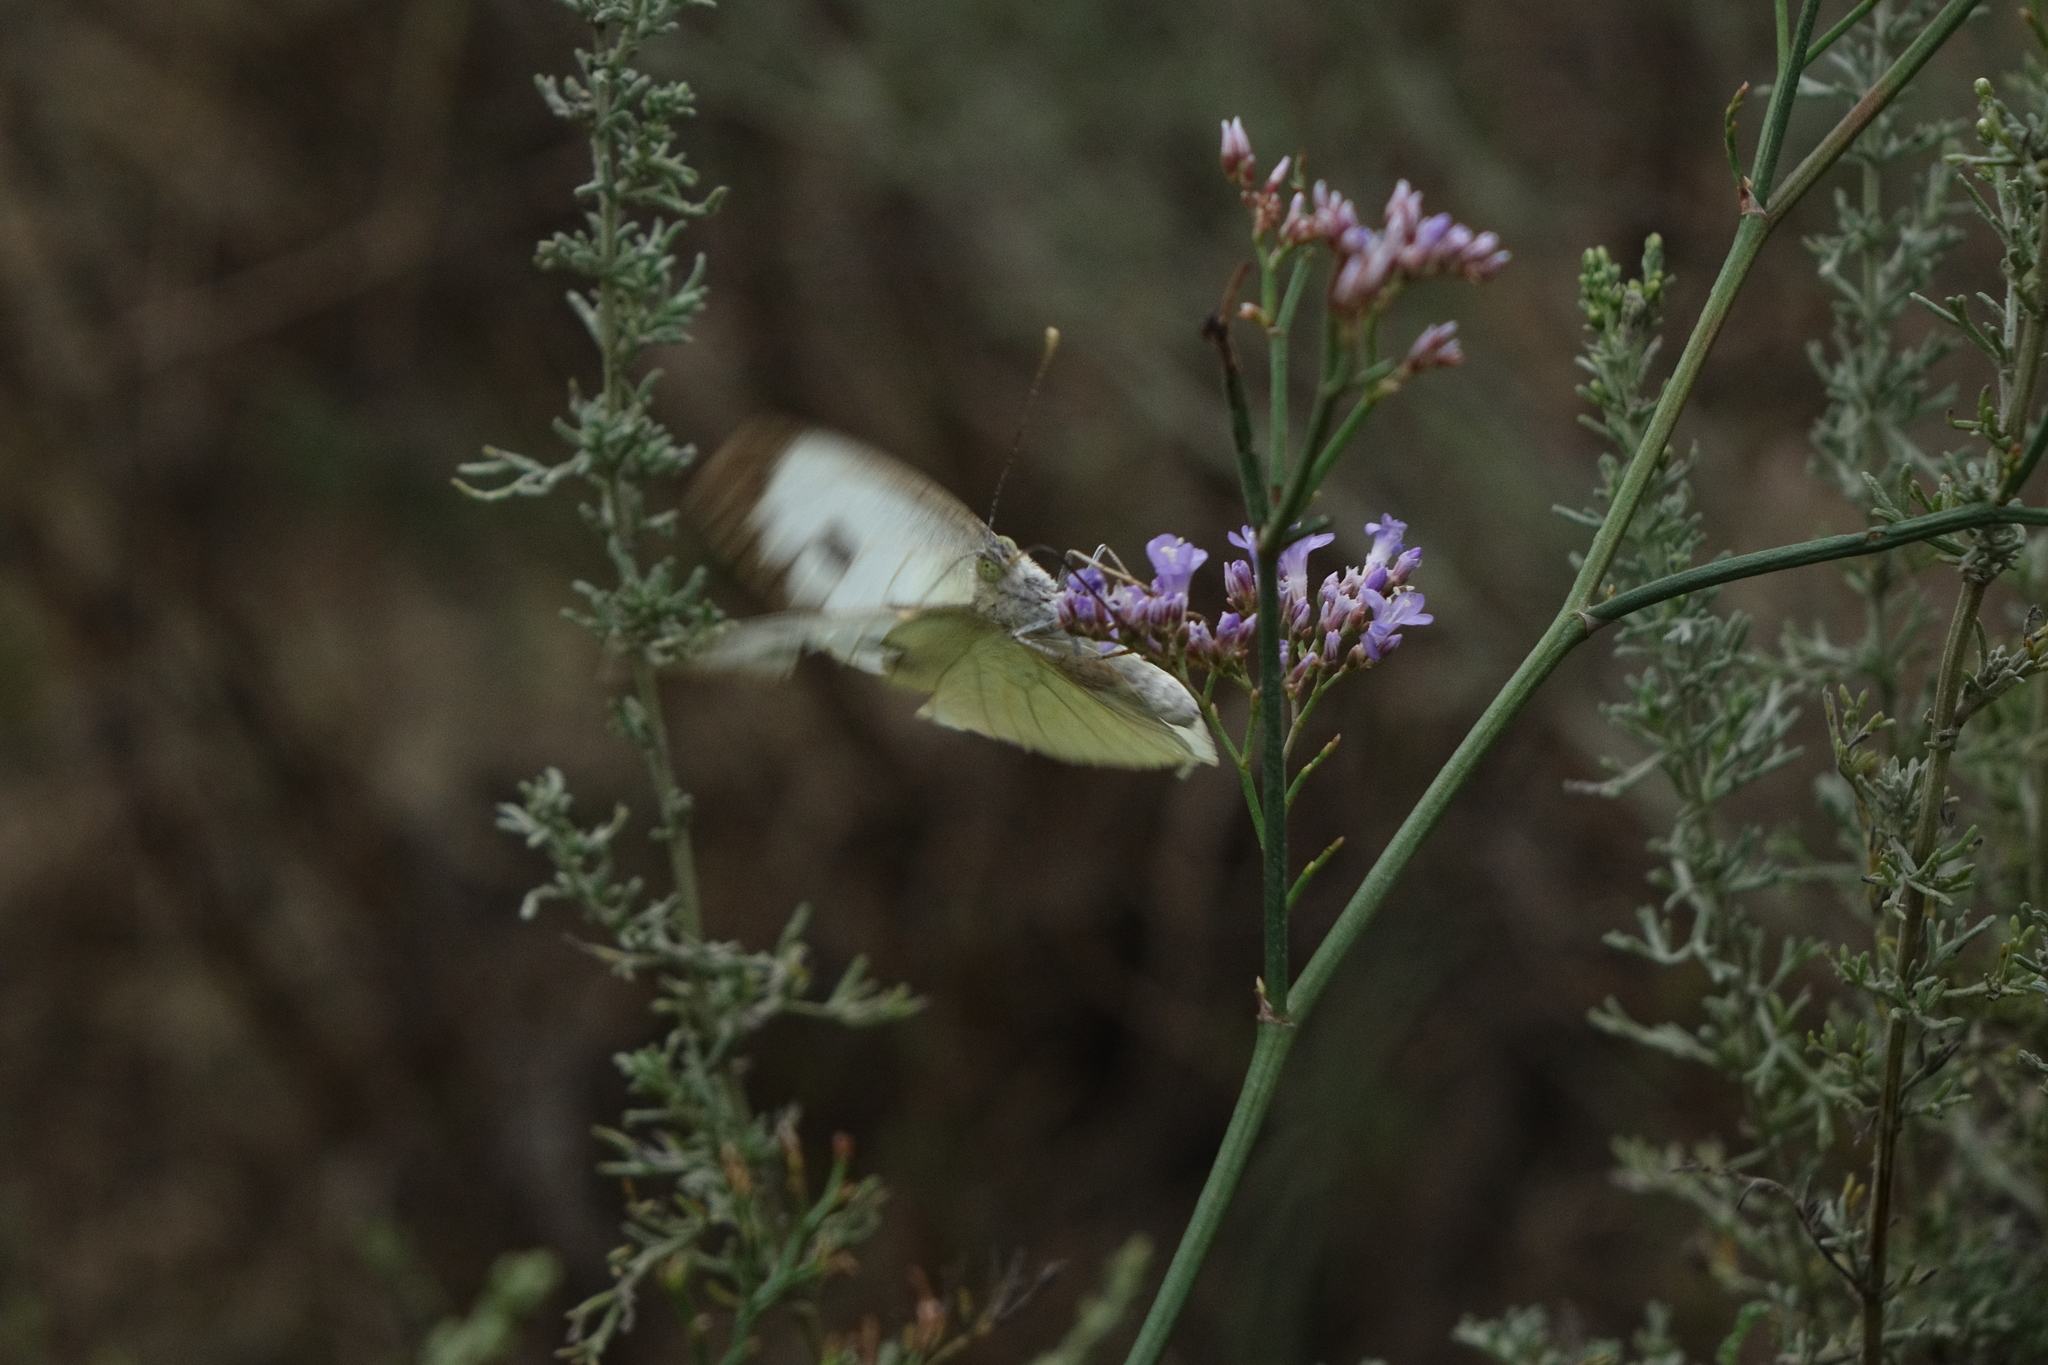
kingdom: Animalia
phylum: Arthropoda
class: Insecta
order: Lepidoptera
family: Pieridae
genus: Pieris
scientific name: Pieris brassicae
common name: Large white
